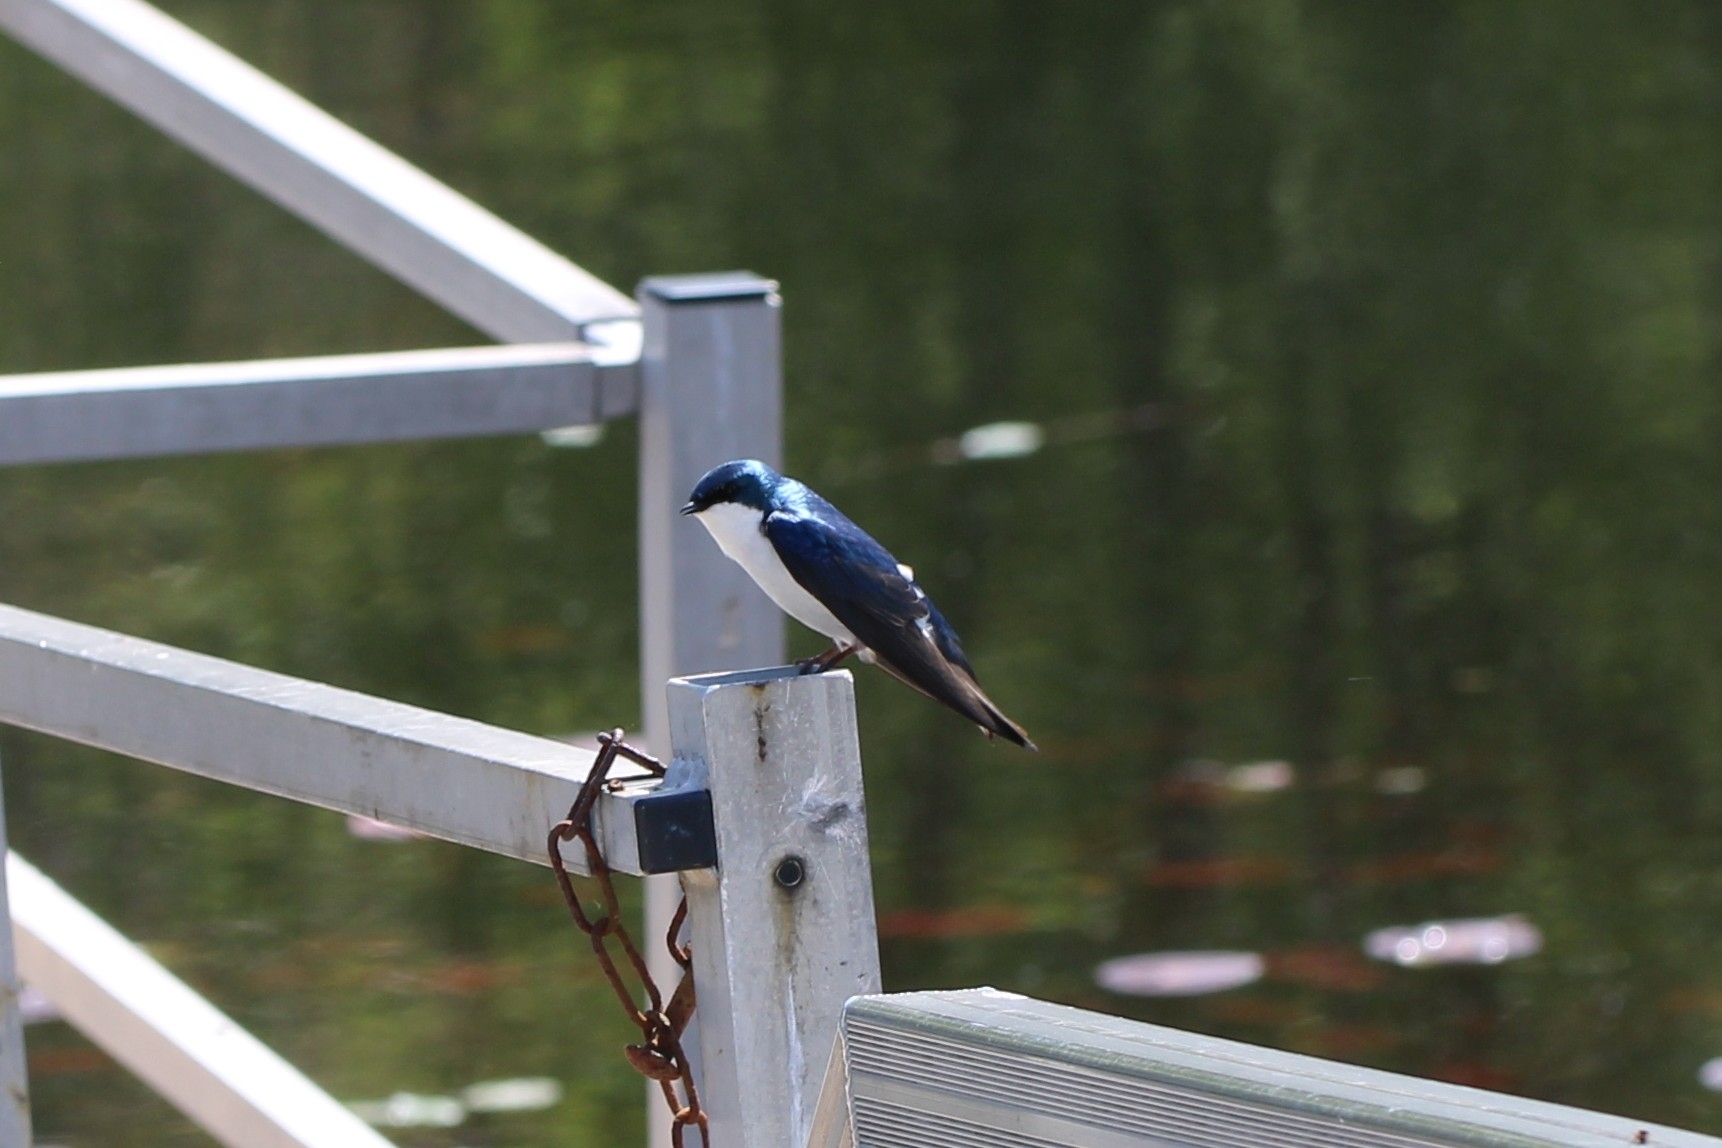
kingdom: Animalia
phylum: Chordata
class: Aves
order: Passeriformes
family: Hirundinidae
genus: Tachycineta
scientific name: Tachycineta bicolor
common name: Tree swallow
